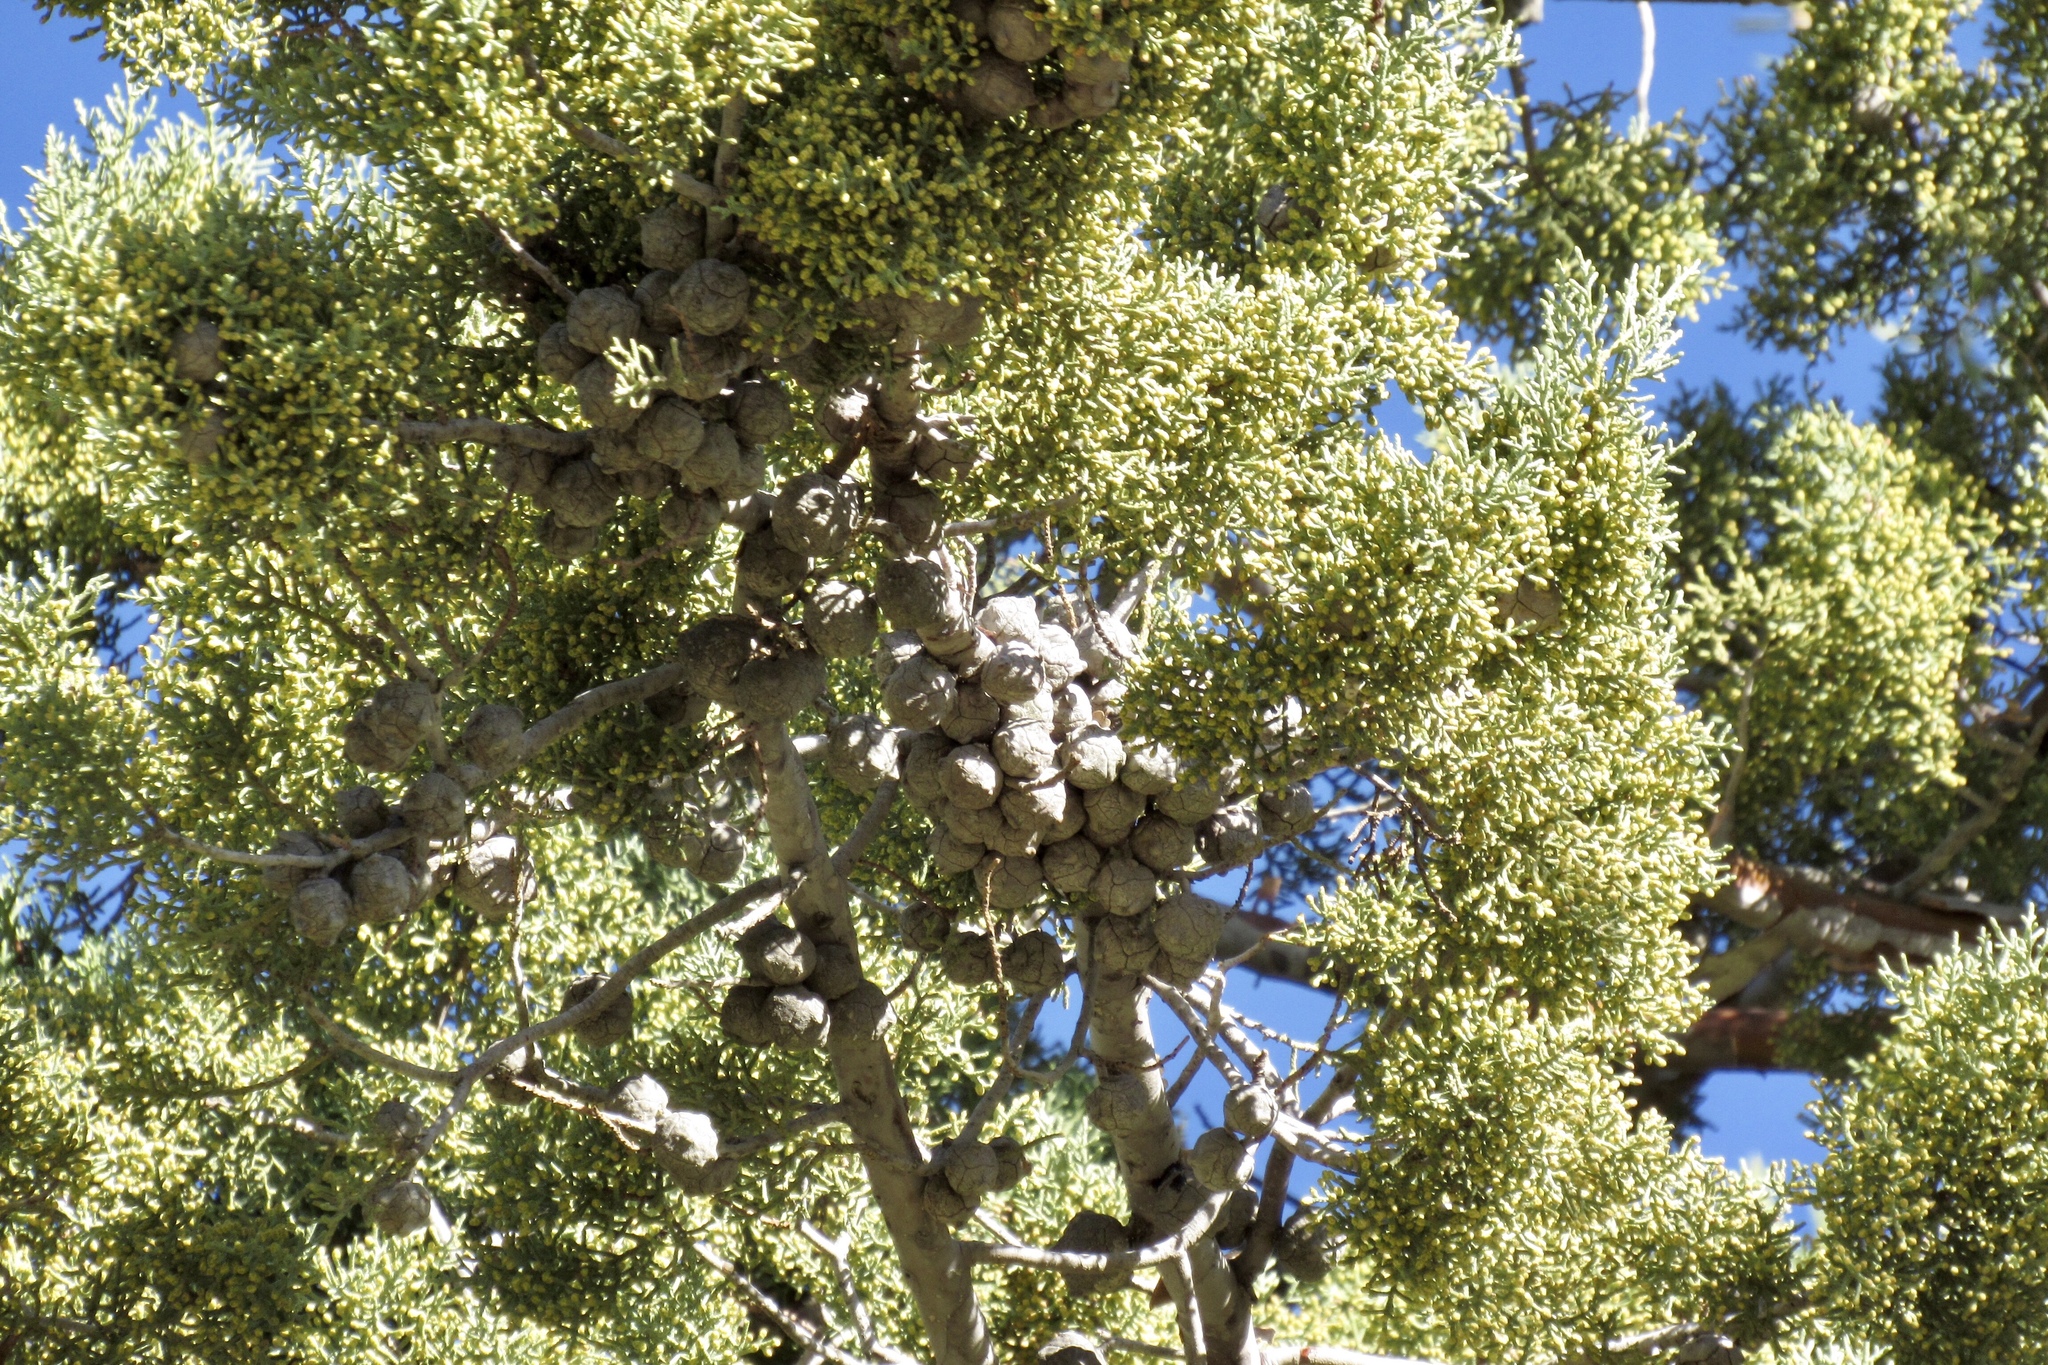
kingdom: Plantae
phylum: Tracheophyta
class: Pinopsida
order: Pinales
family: Cupressaceae
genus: Cupressus
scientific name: Cupressus arizonica
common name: Arizona cypress
